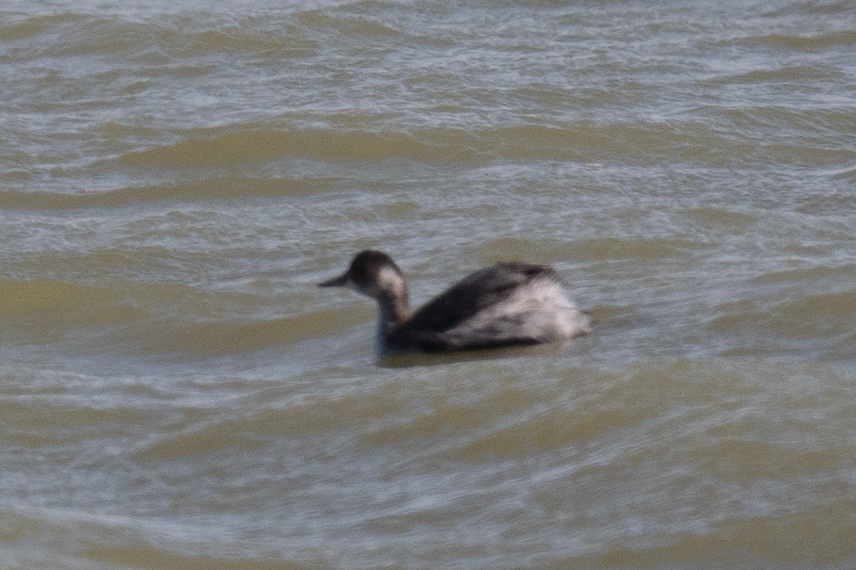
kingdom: Animalia
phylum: Chordata
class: Aves
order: Podicipediformes
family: Podicipedidae
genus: Podiceps
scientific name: Podiceps nigricollis
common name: Black-necked grebe
